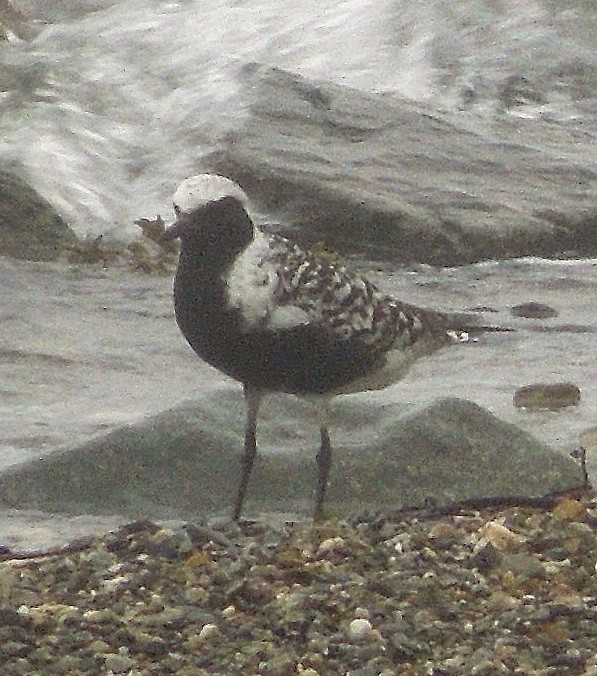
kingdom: Animalia
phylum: Chordata
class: Aves
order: Charadriiformes
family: Charadriidae
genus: Pluvialis
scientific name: Pluvialis squatarola
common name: Grey plover
